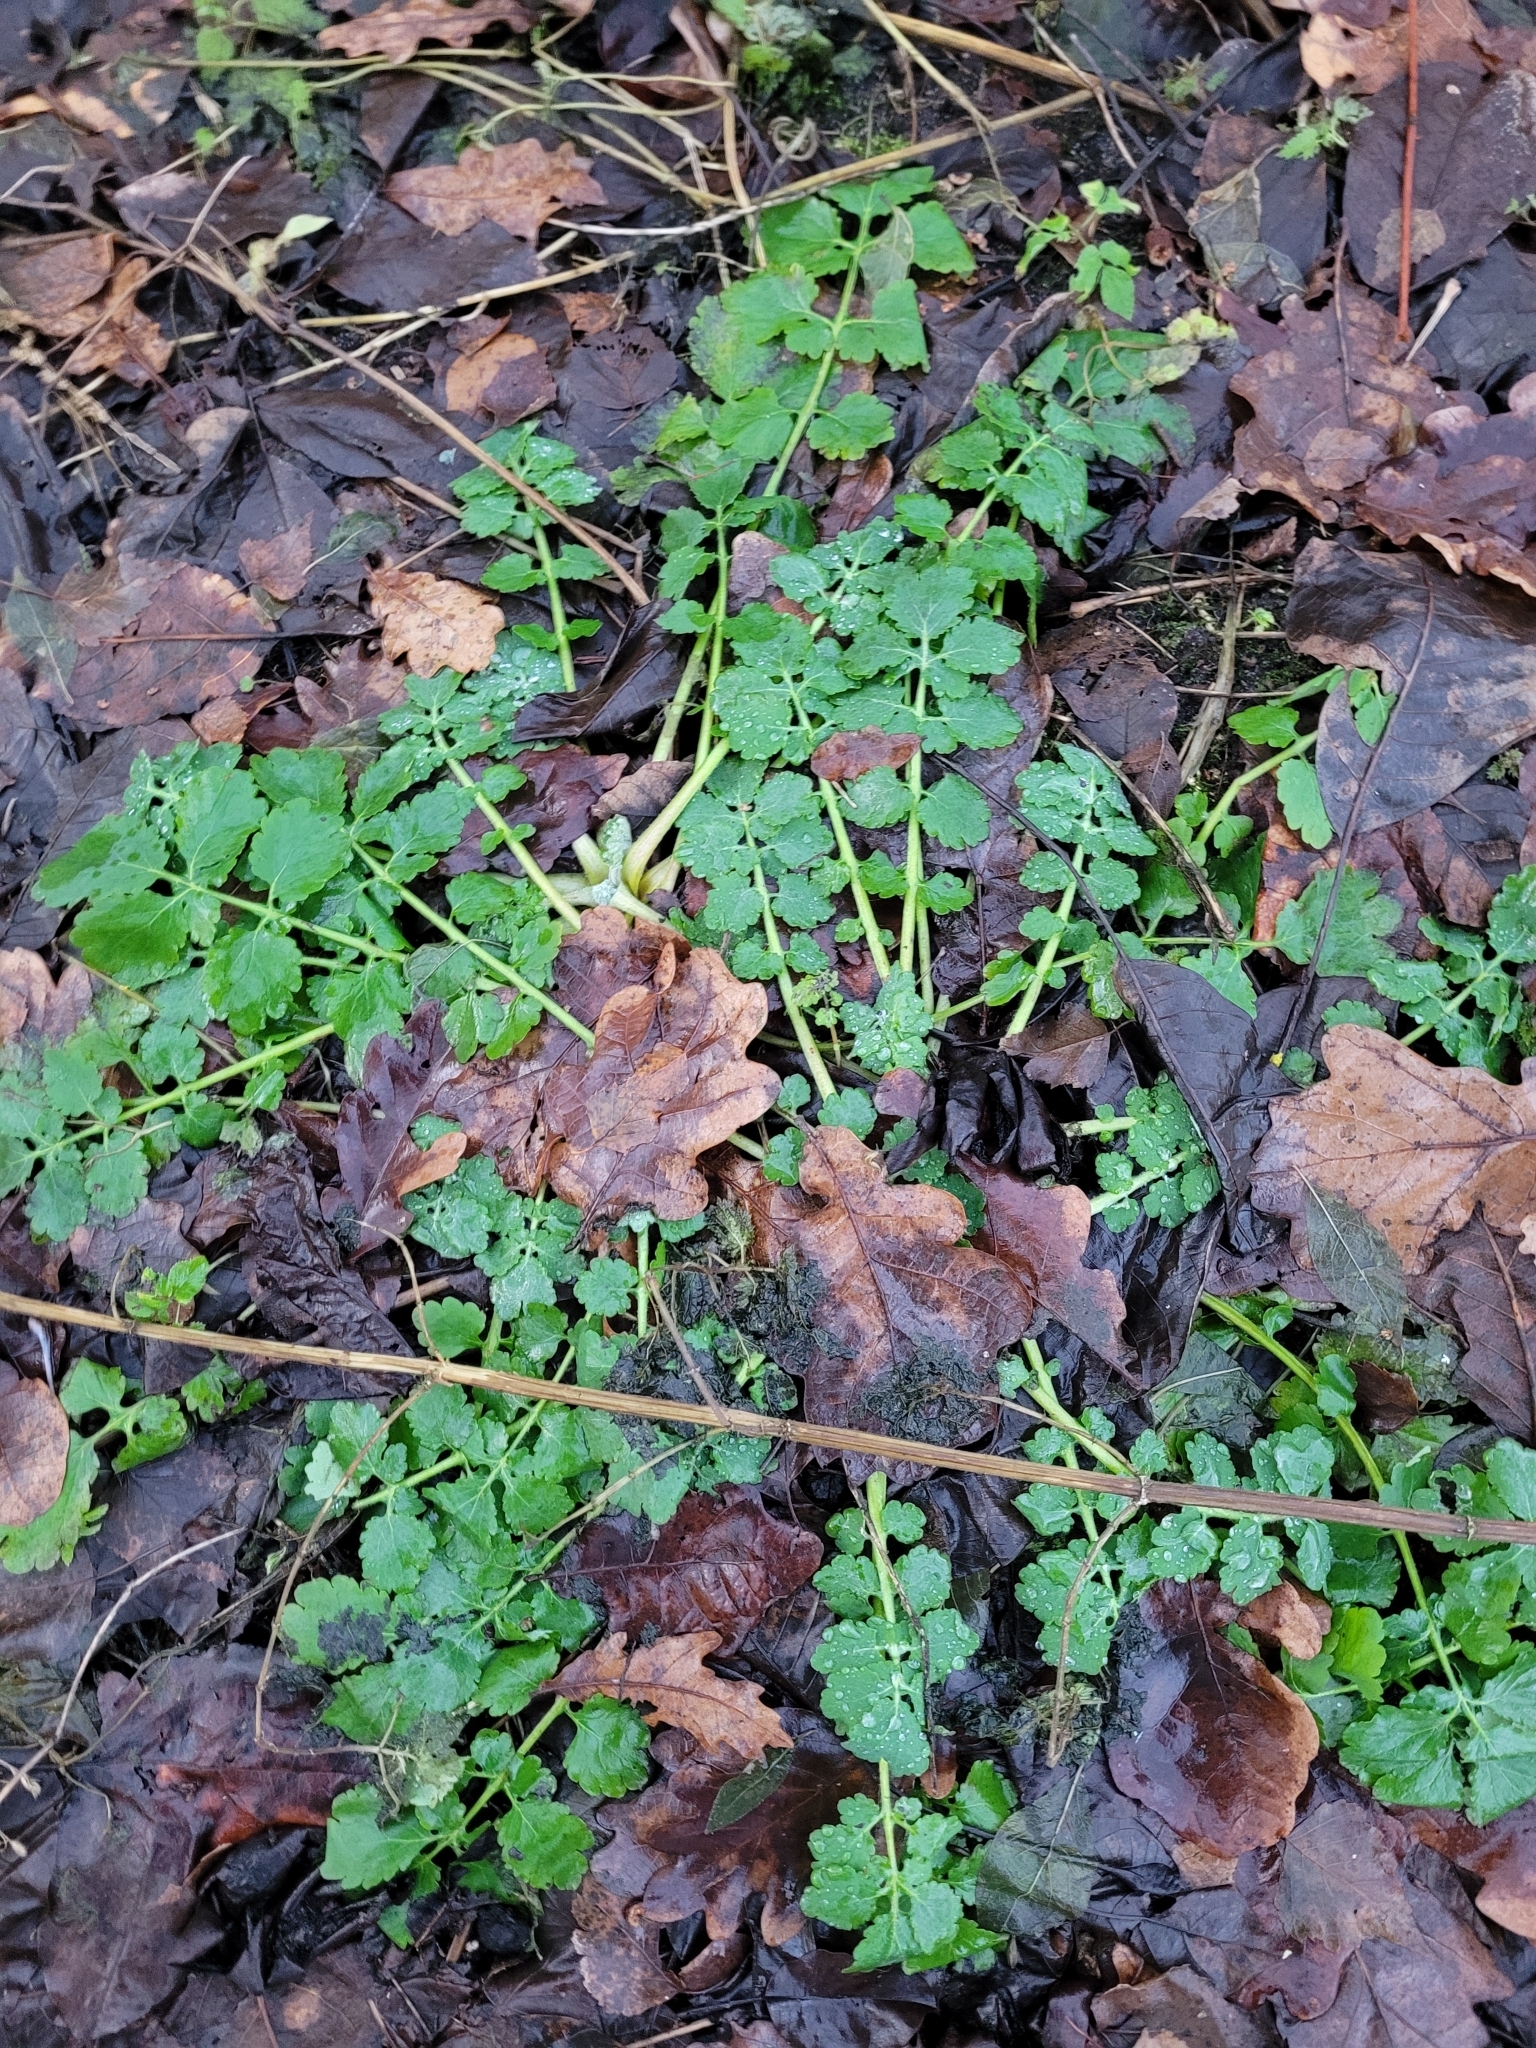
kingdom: Plantae
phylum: Tracheophyta
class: Magnoliopsida
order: Ranunculales
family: Papaveraceae
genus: Chelidonium
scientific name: Chelidonium majus
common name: Greater celandine
